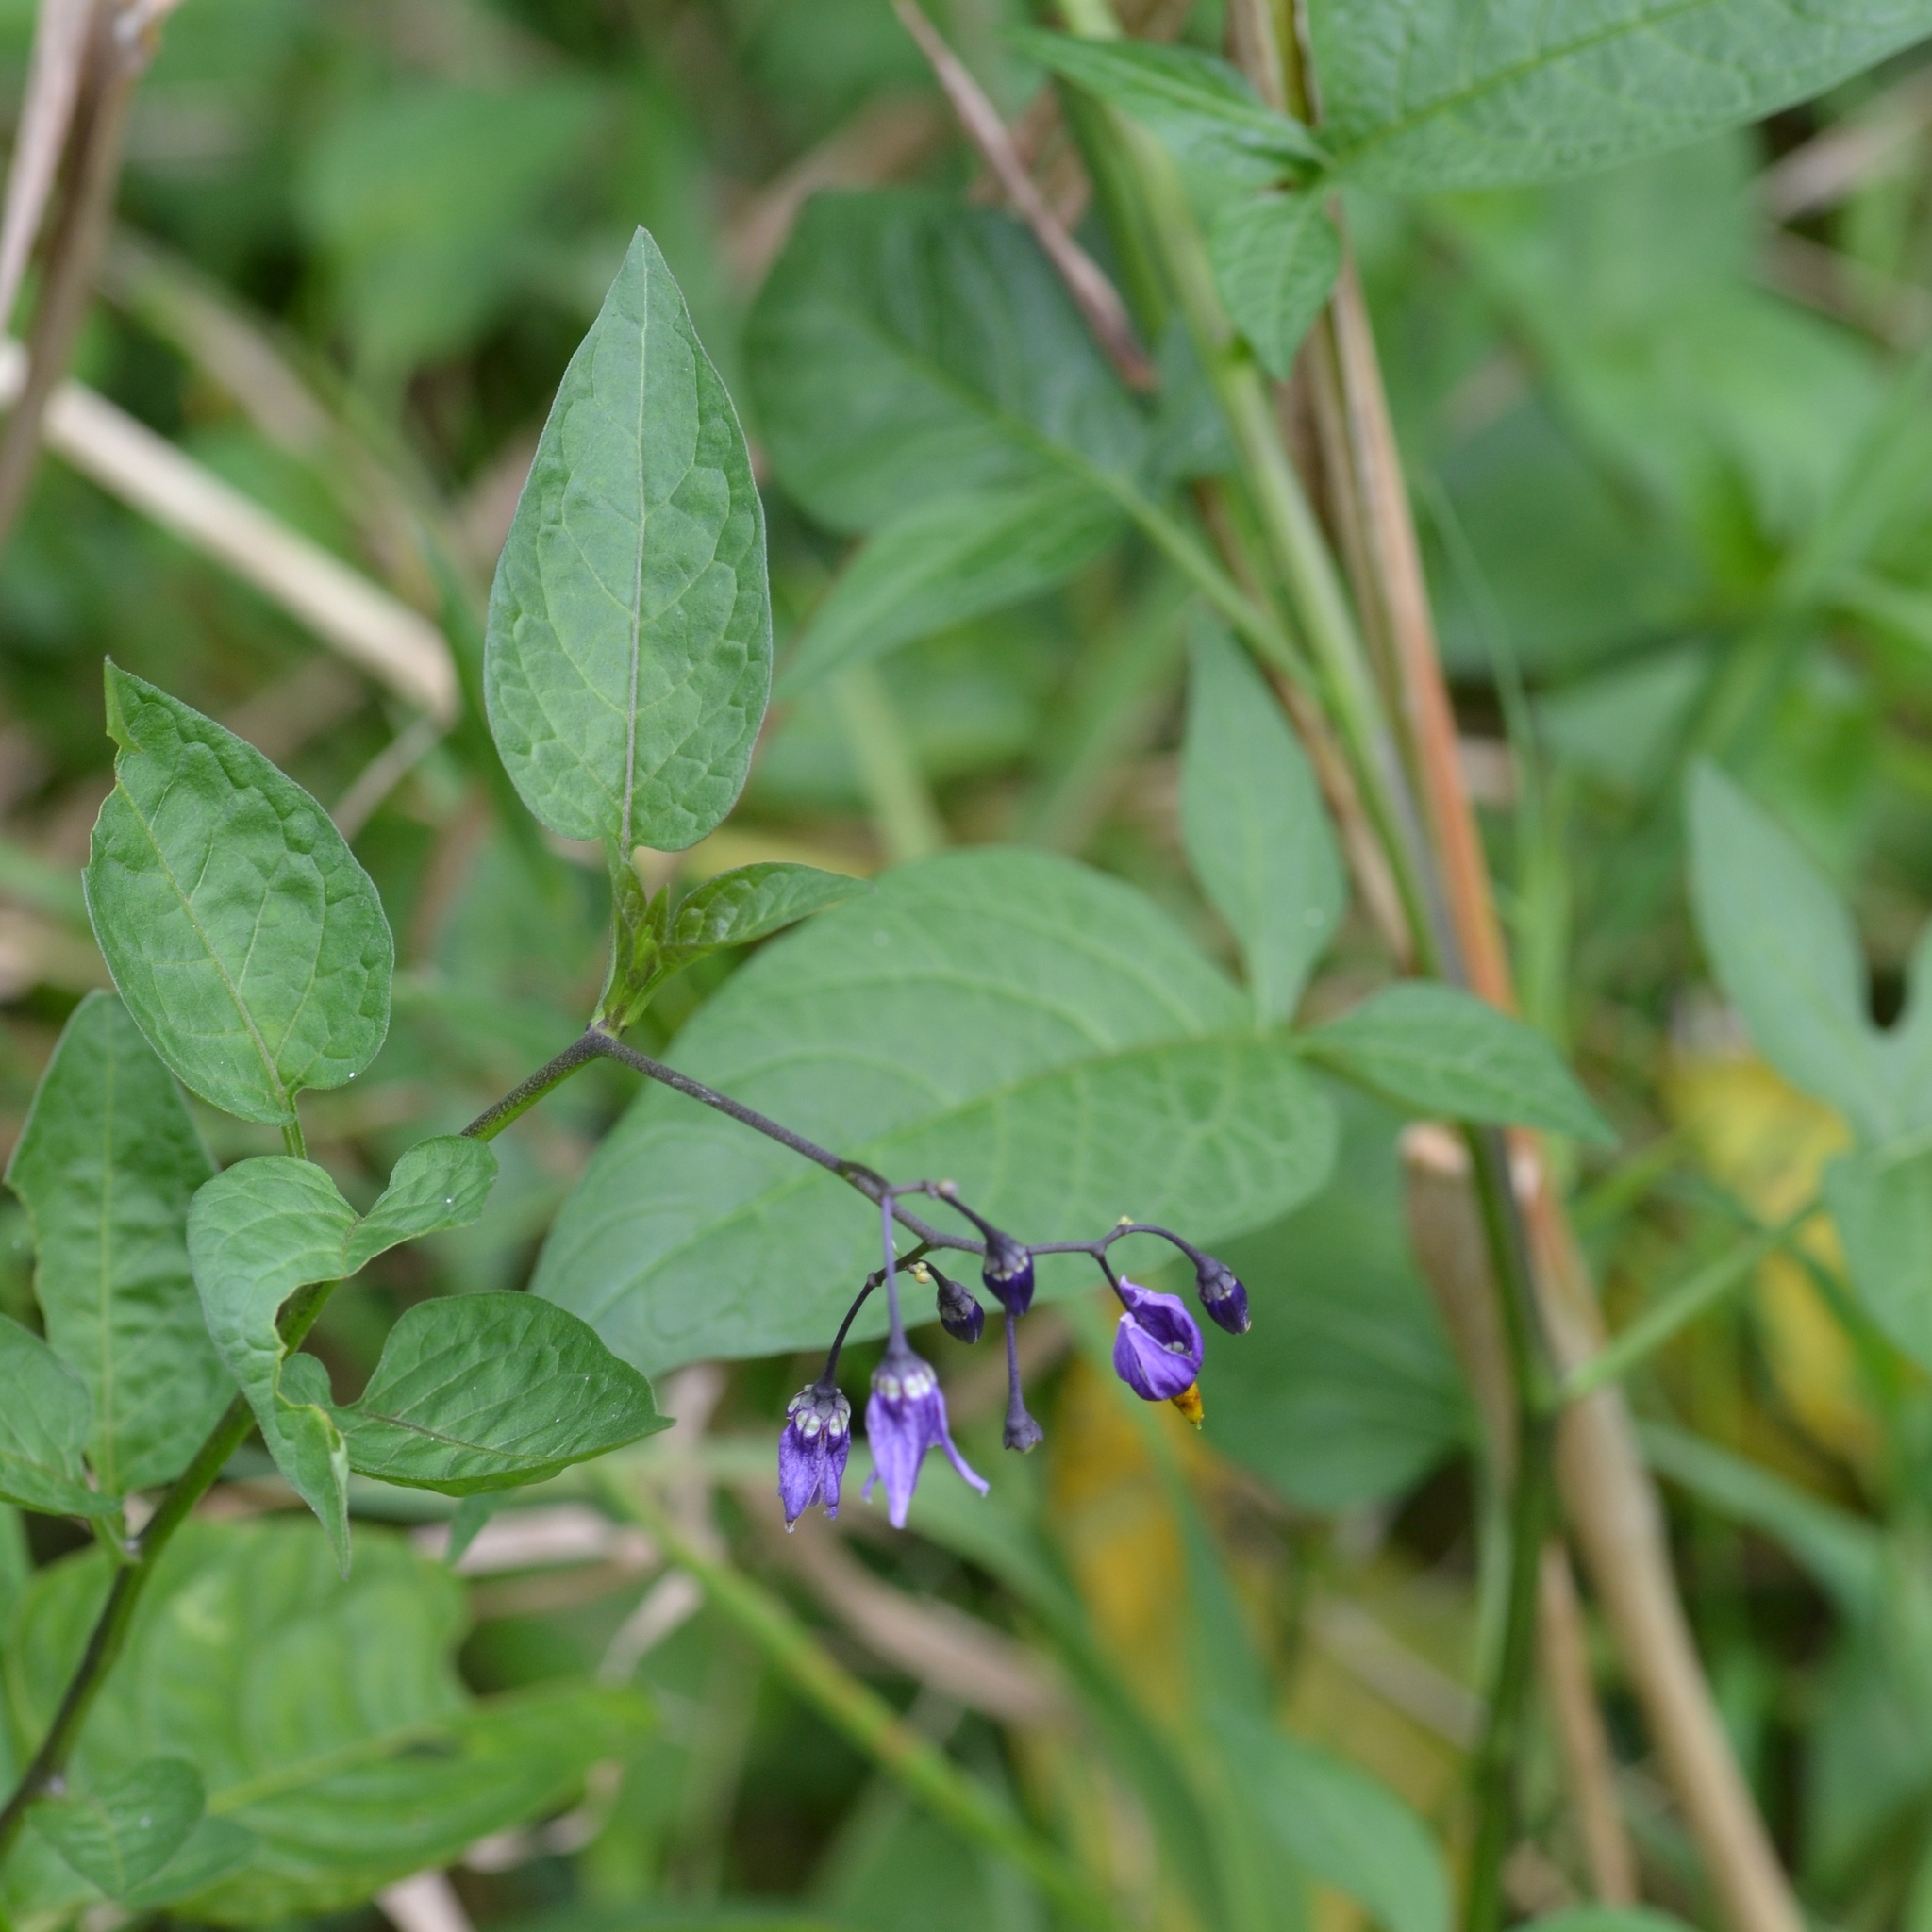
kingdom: Plantae
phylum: Tracheophyta
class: Magnoliopsida
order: Solanales
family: Solanaceae
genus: Solanum
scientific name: Solanum dulcamara
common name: Climbing nightshade
